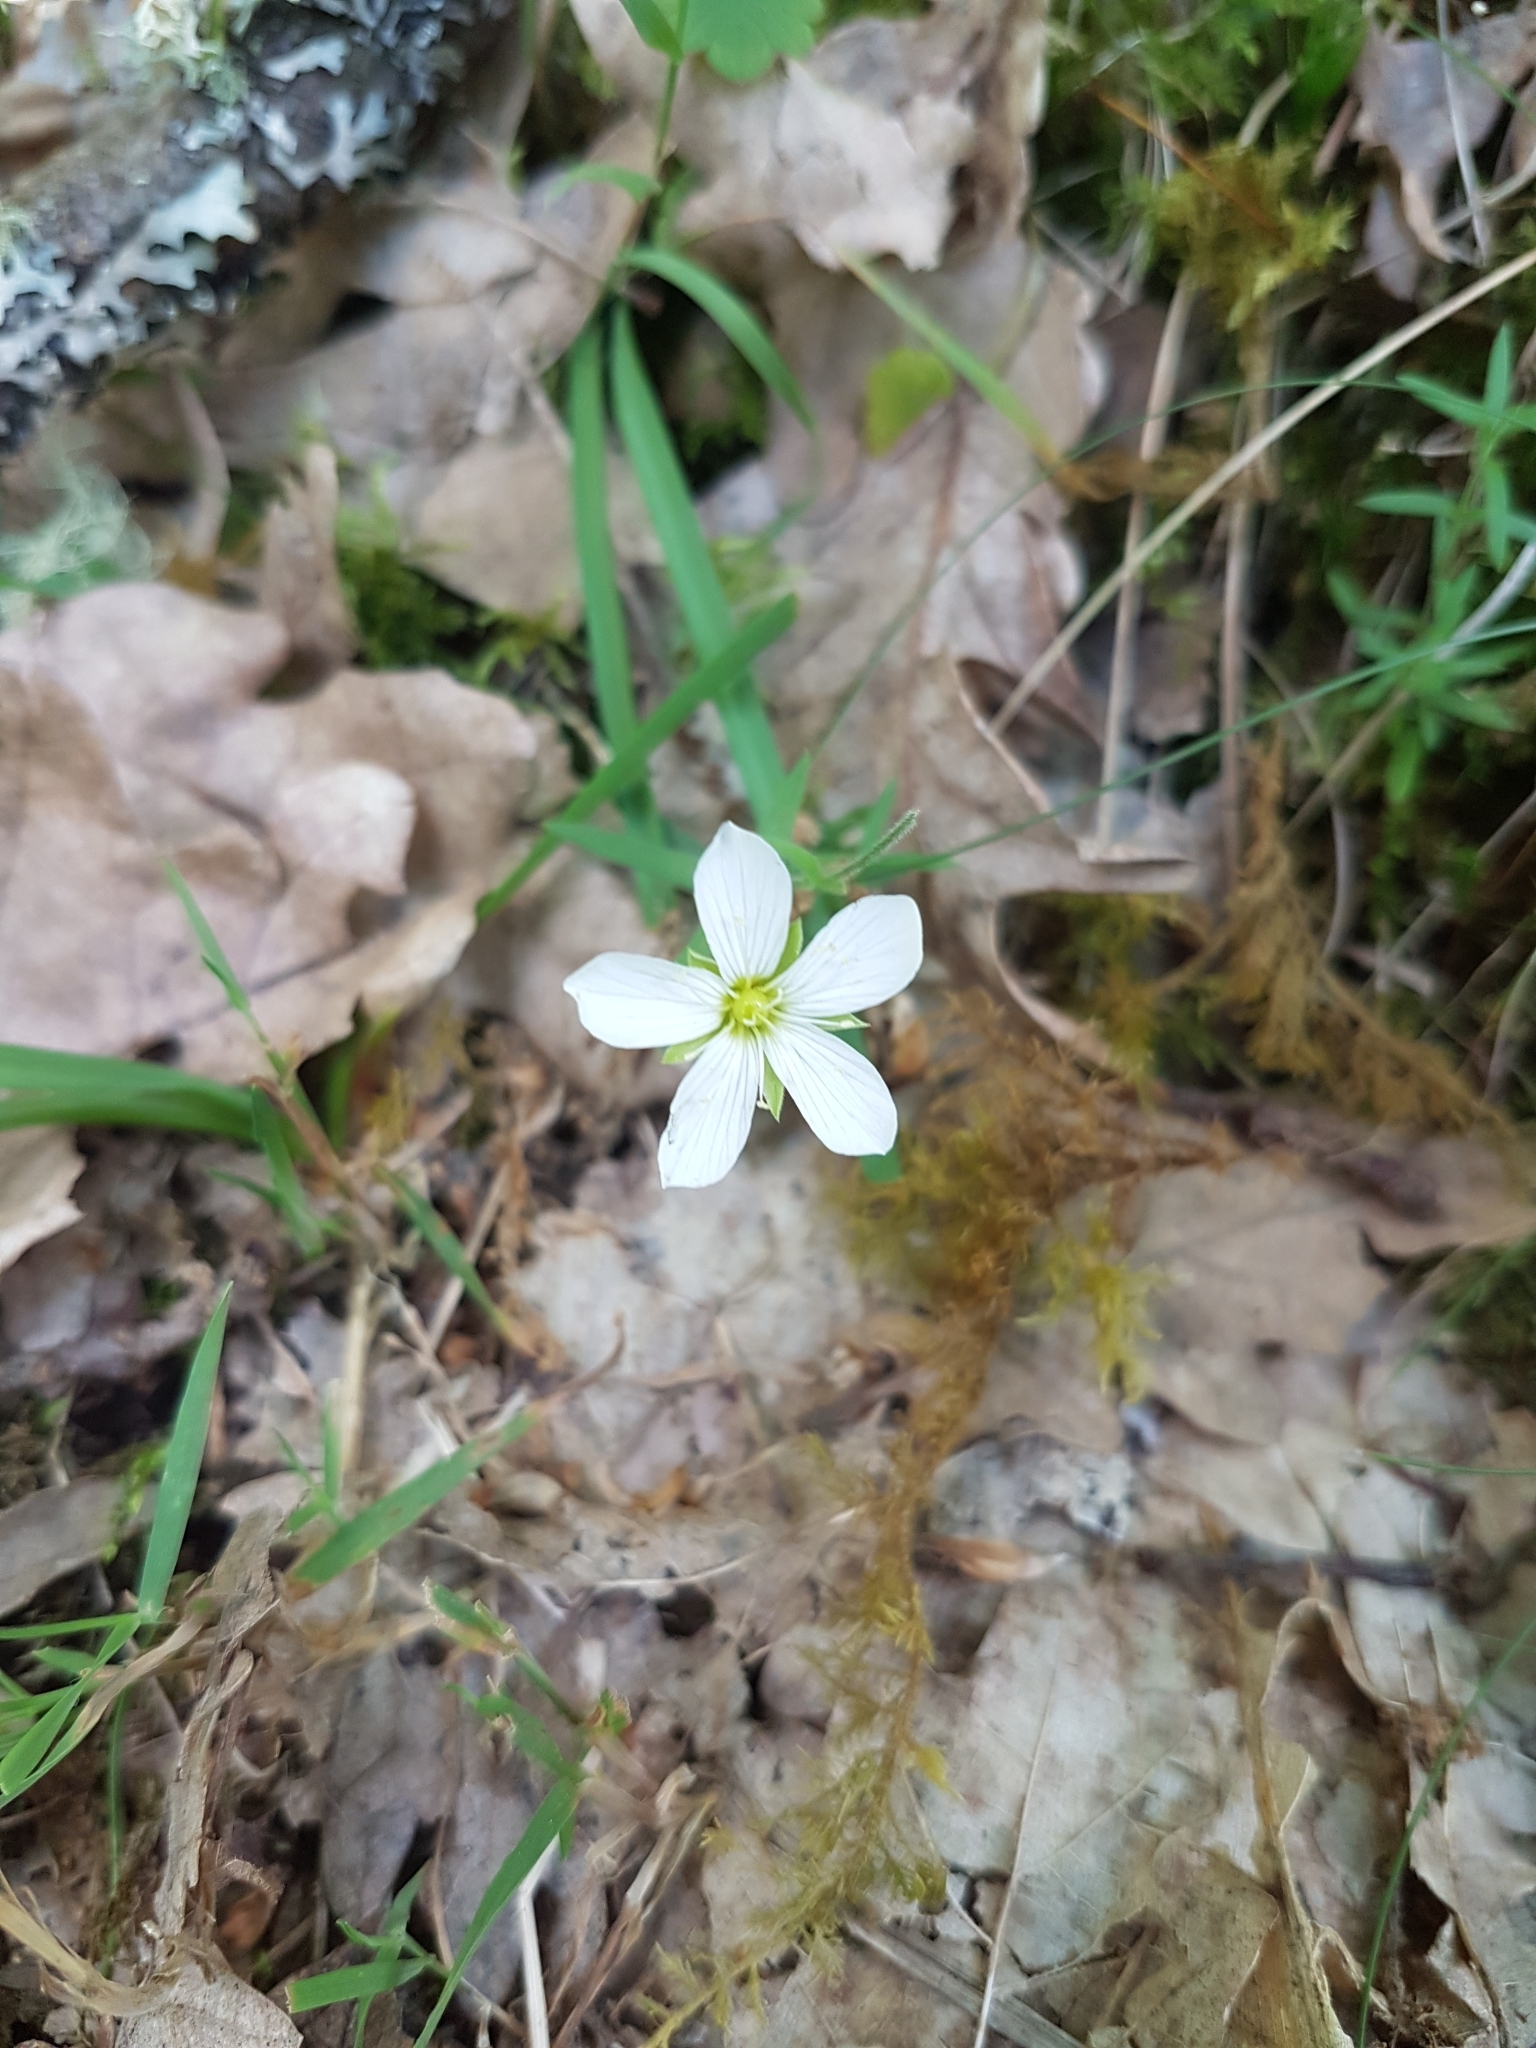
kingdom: Plantae
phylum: Tracheophyta
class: Magnoliopsida
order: Caryophyllales
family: Caryophyllaceae
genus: Arenaria
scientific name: Arenaria montana
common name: Mountain sandwort
